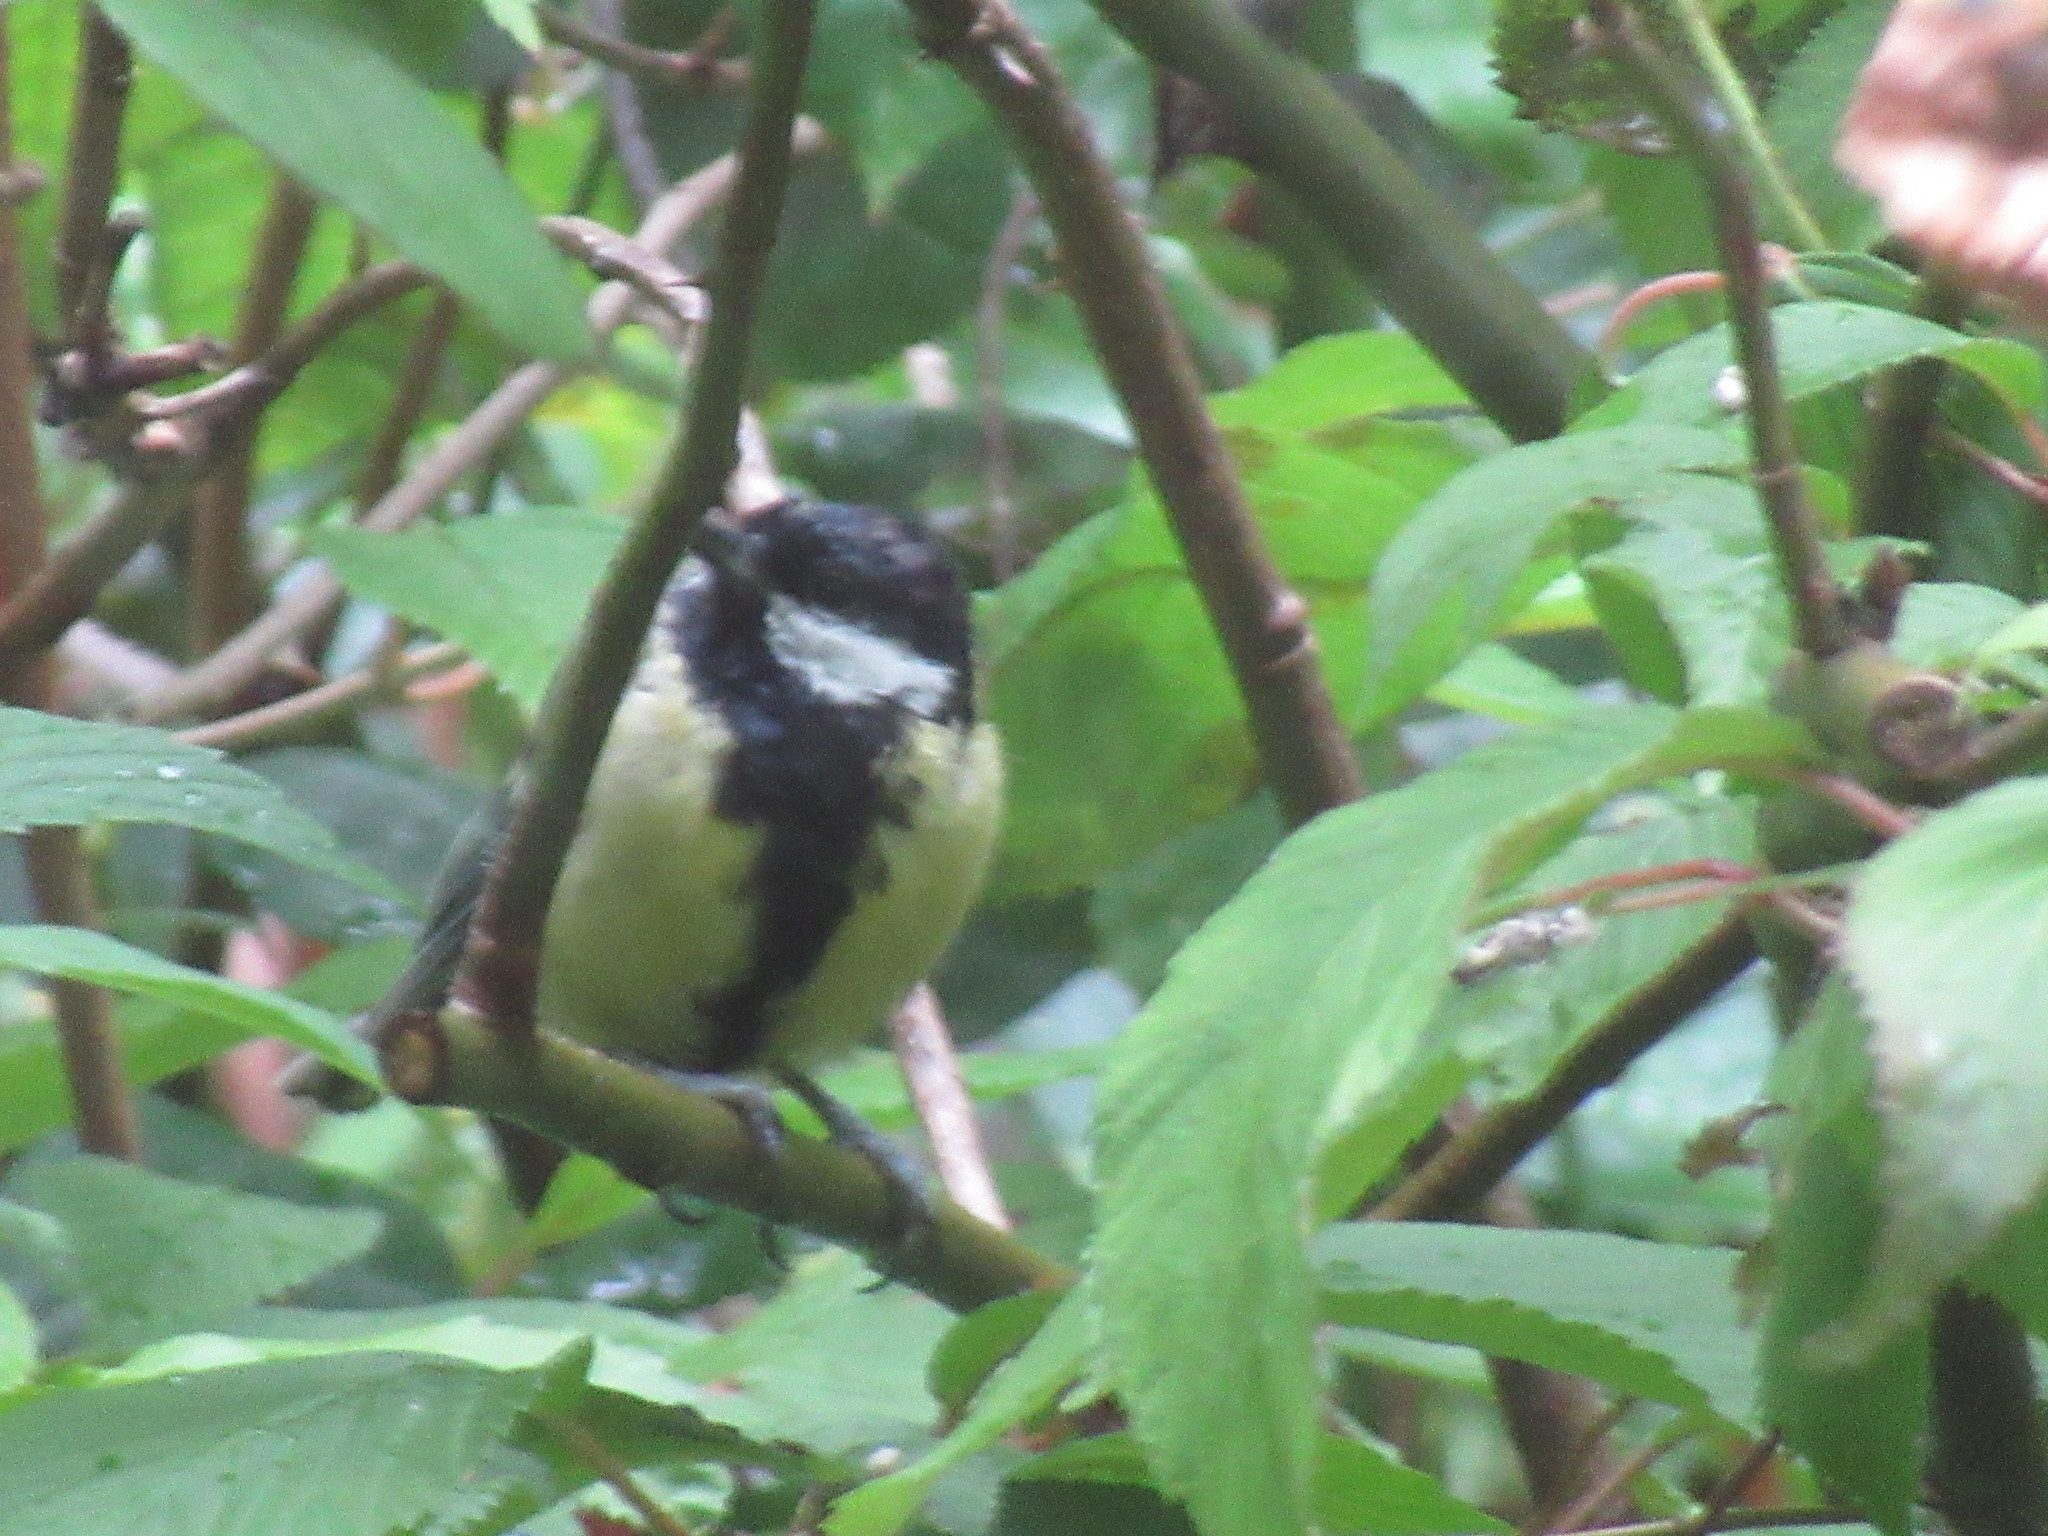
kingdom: Animalia
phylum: Chordata
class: Aves
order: Passeriformes
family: Paridae
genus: Parus
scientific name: Parus major
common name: Great tit
